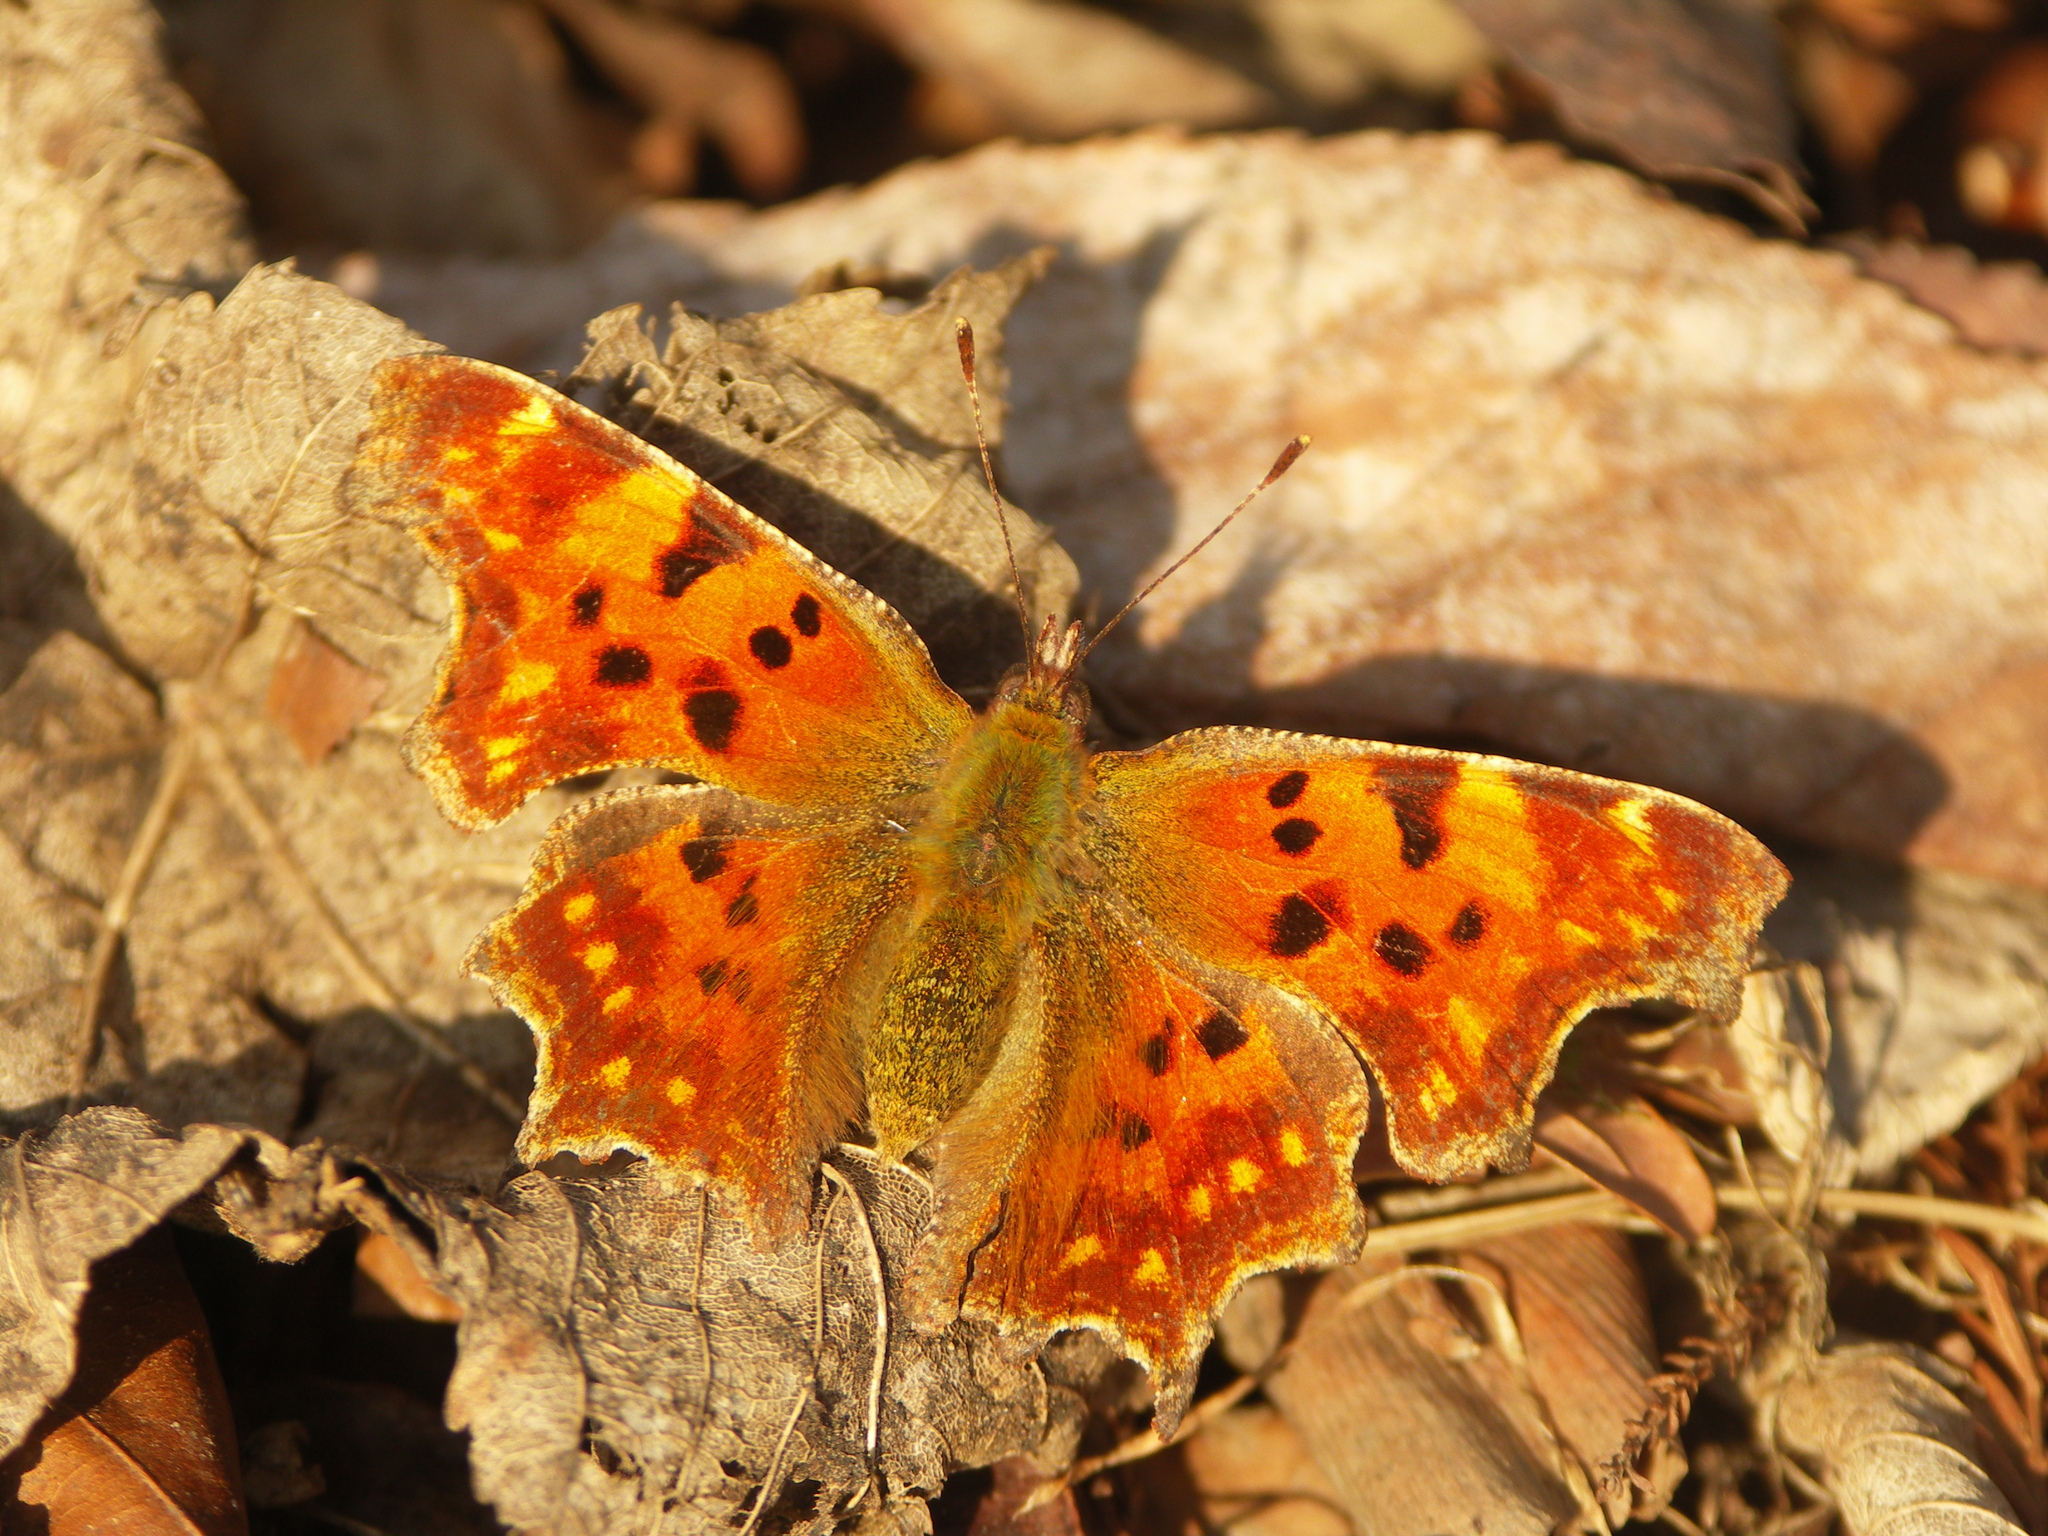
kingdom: Animalia
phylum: Arthropoda
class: Insecta
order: Lepidoptera
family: Nymphalidae
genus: Polygonia
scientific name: Polygonia c-album
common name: Comma
